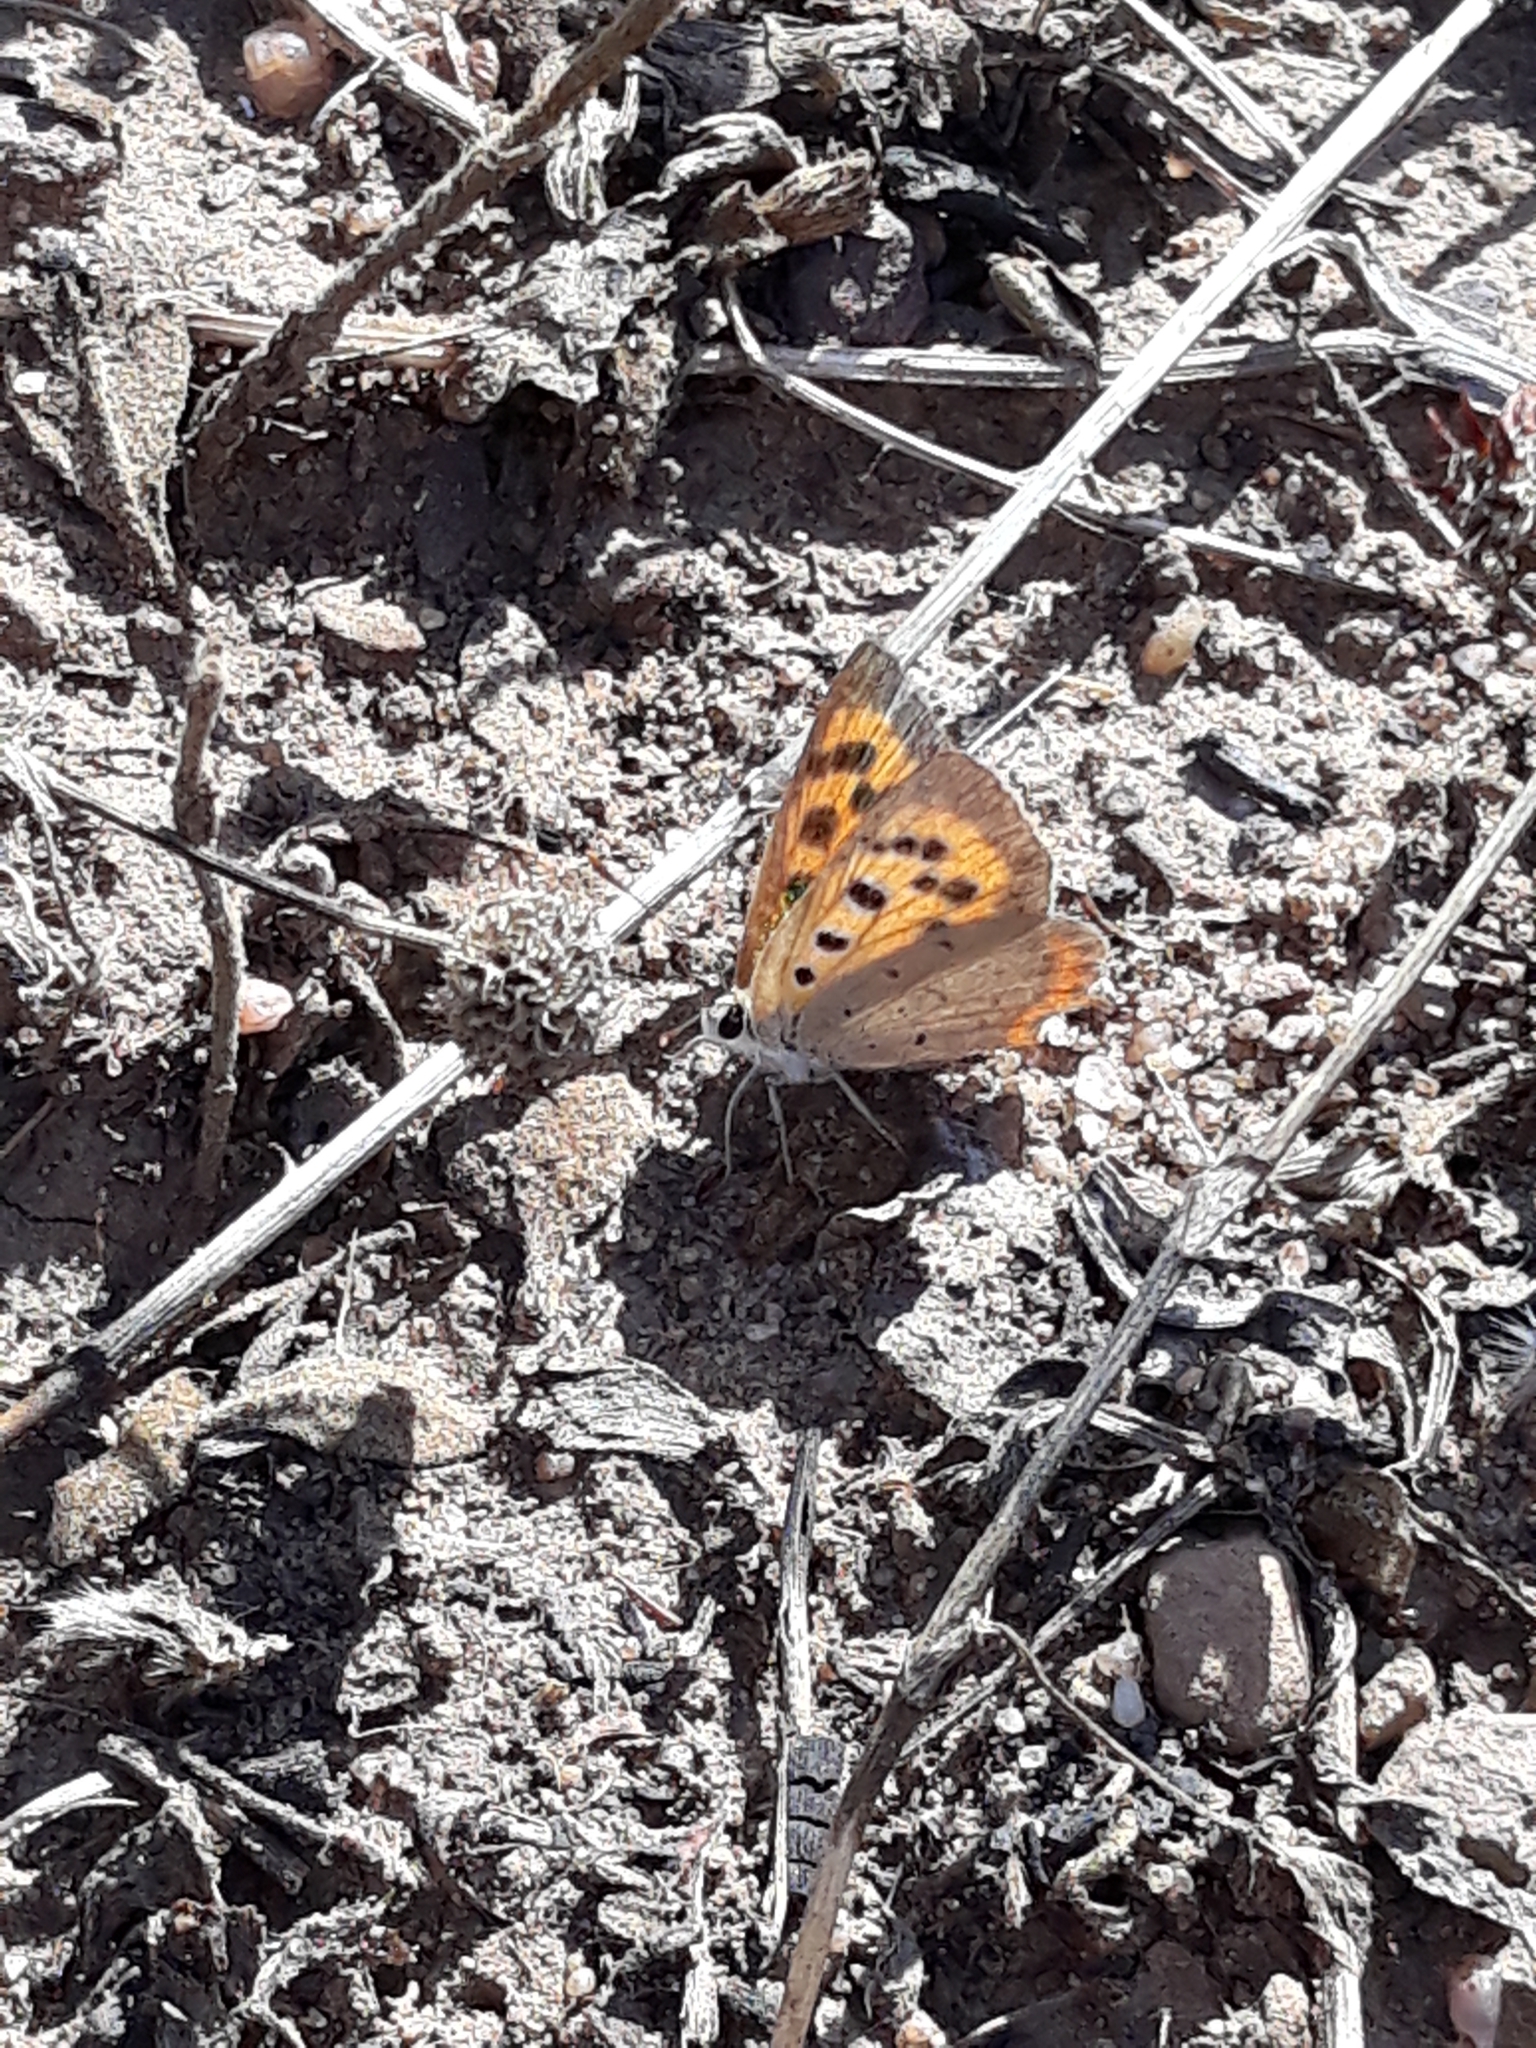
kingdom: Animalia
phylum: Arthropoda
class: Insecta
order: Lepidoptera
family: Lycaenidae
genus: Lycaena
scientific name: Lycaena phlaeas
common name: Small copper
